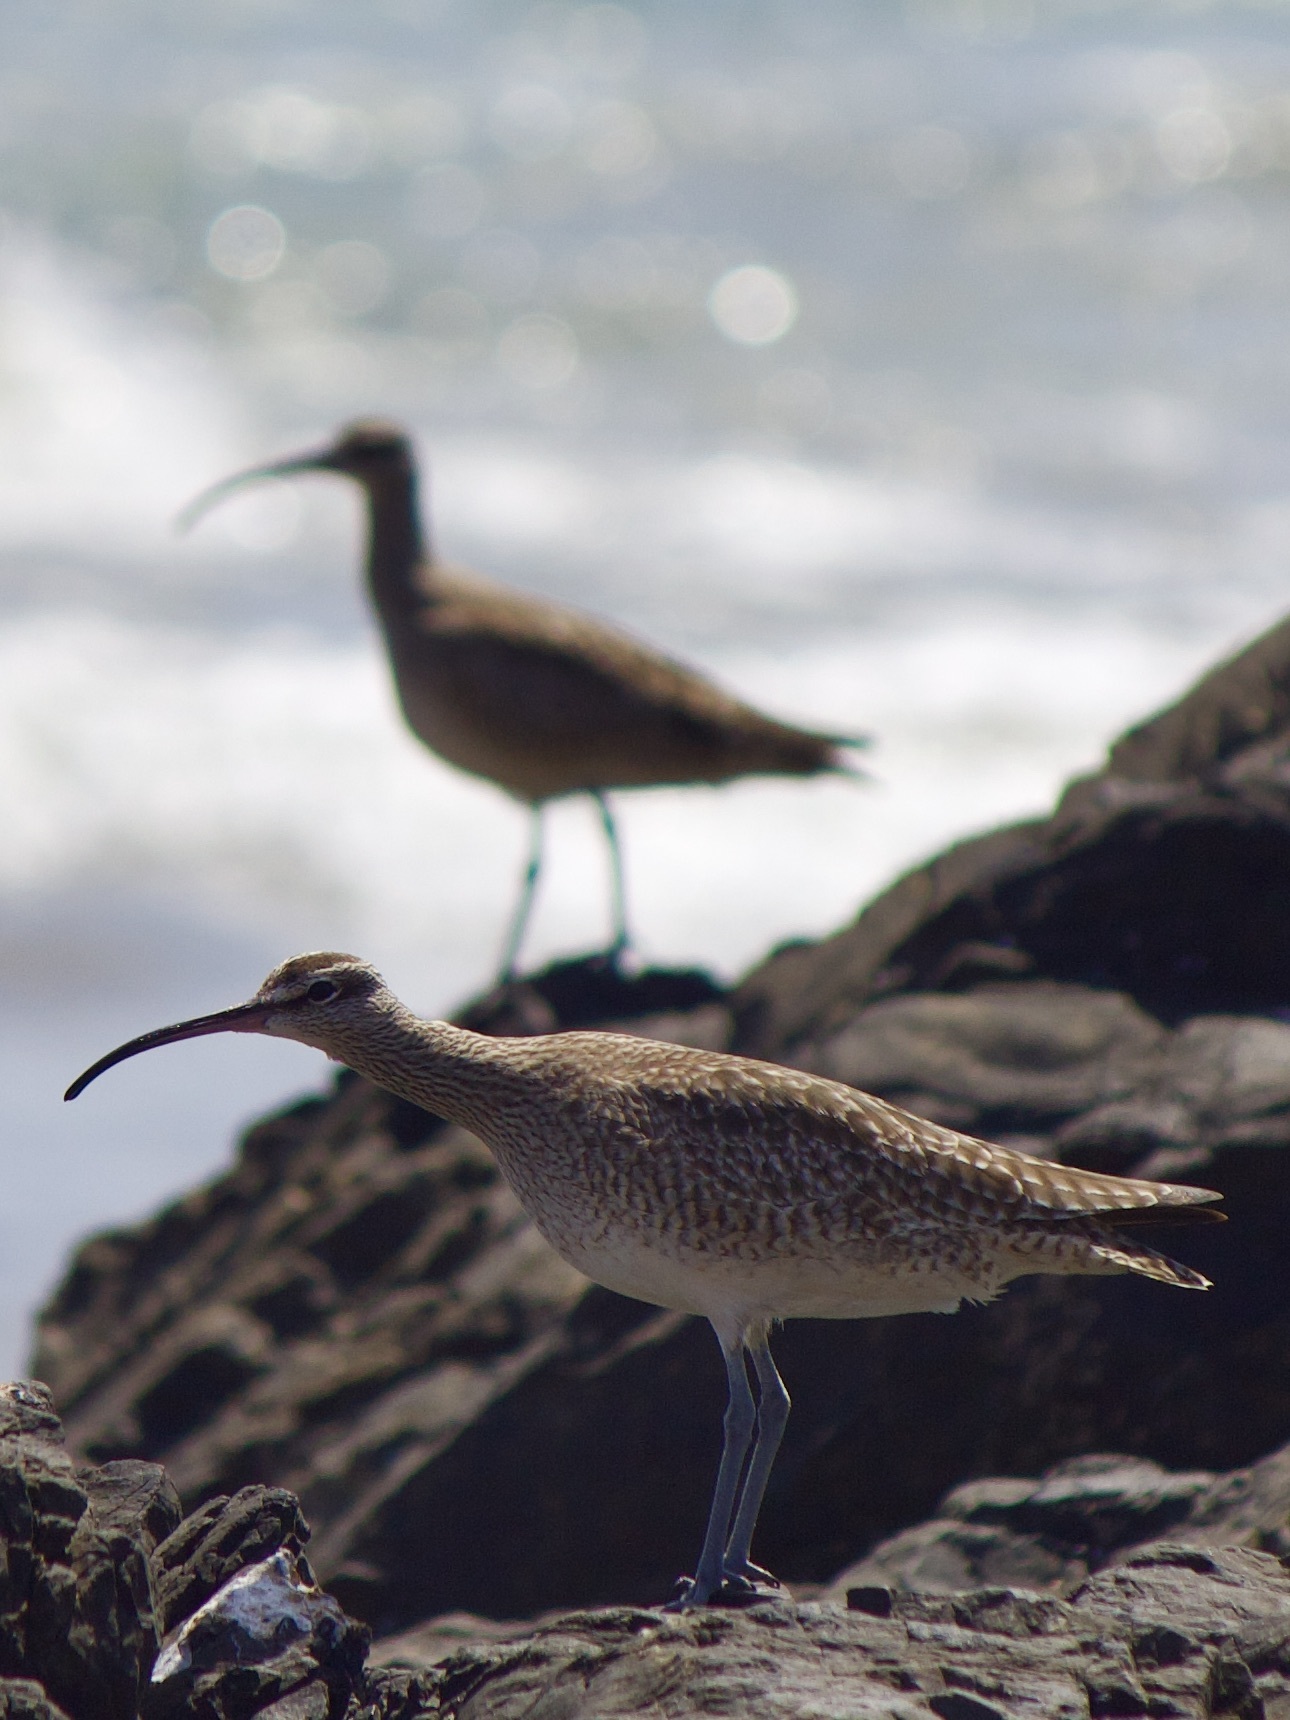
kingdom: Animalia
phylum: Chordata
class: Aves
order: Charadriiformes
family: Scolopacidae
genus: Numenius
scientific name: Numenius phaeopus
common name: Whimbrel
